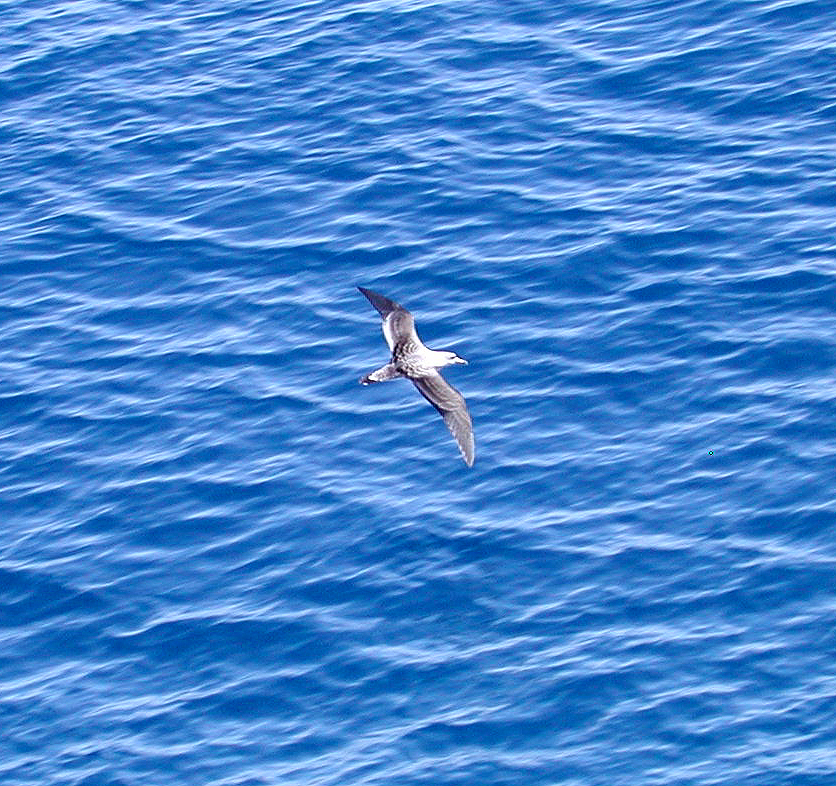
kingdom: Animalia
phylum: Chordata
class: Aves
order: Procellariiformes
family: Procellariidae
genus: Calonectris
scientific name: Calonectris diomedea
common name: Cory's shearwater
